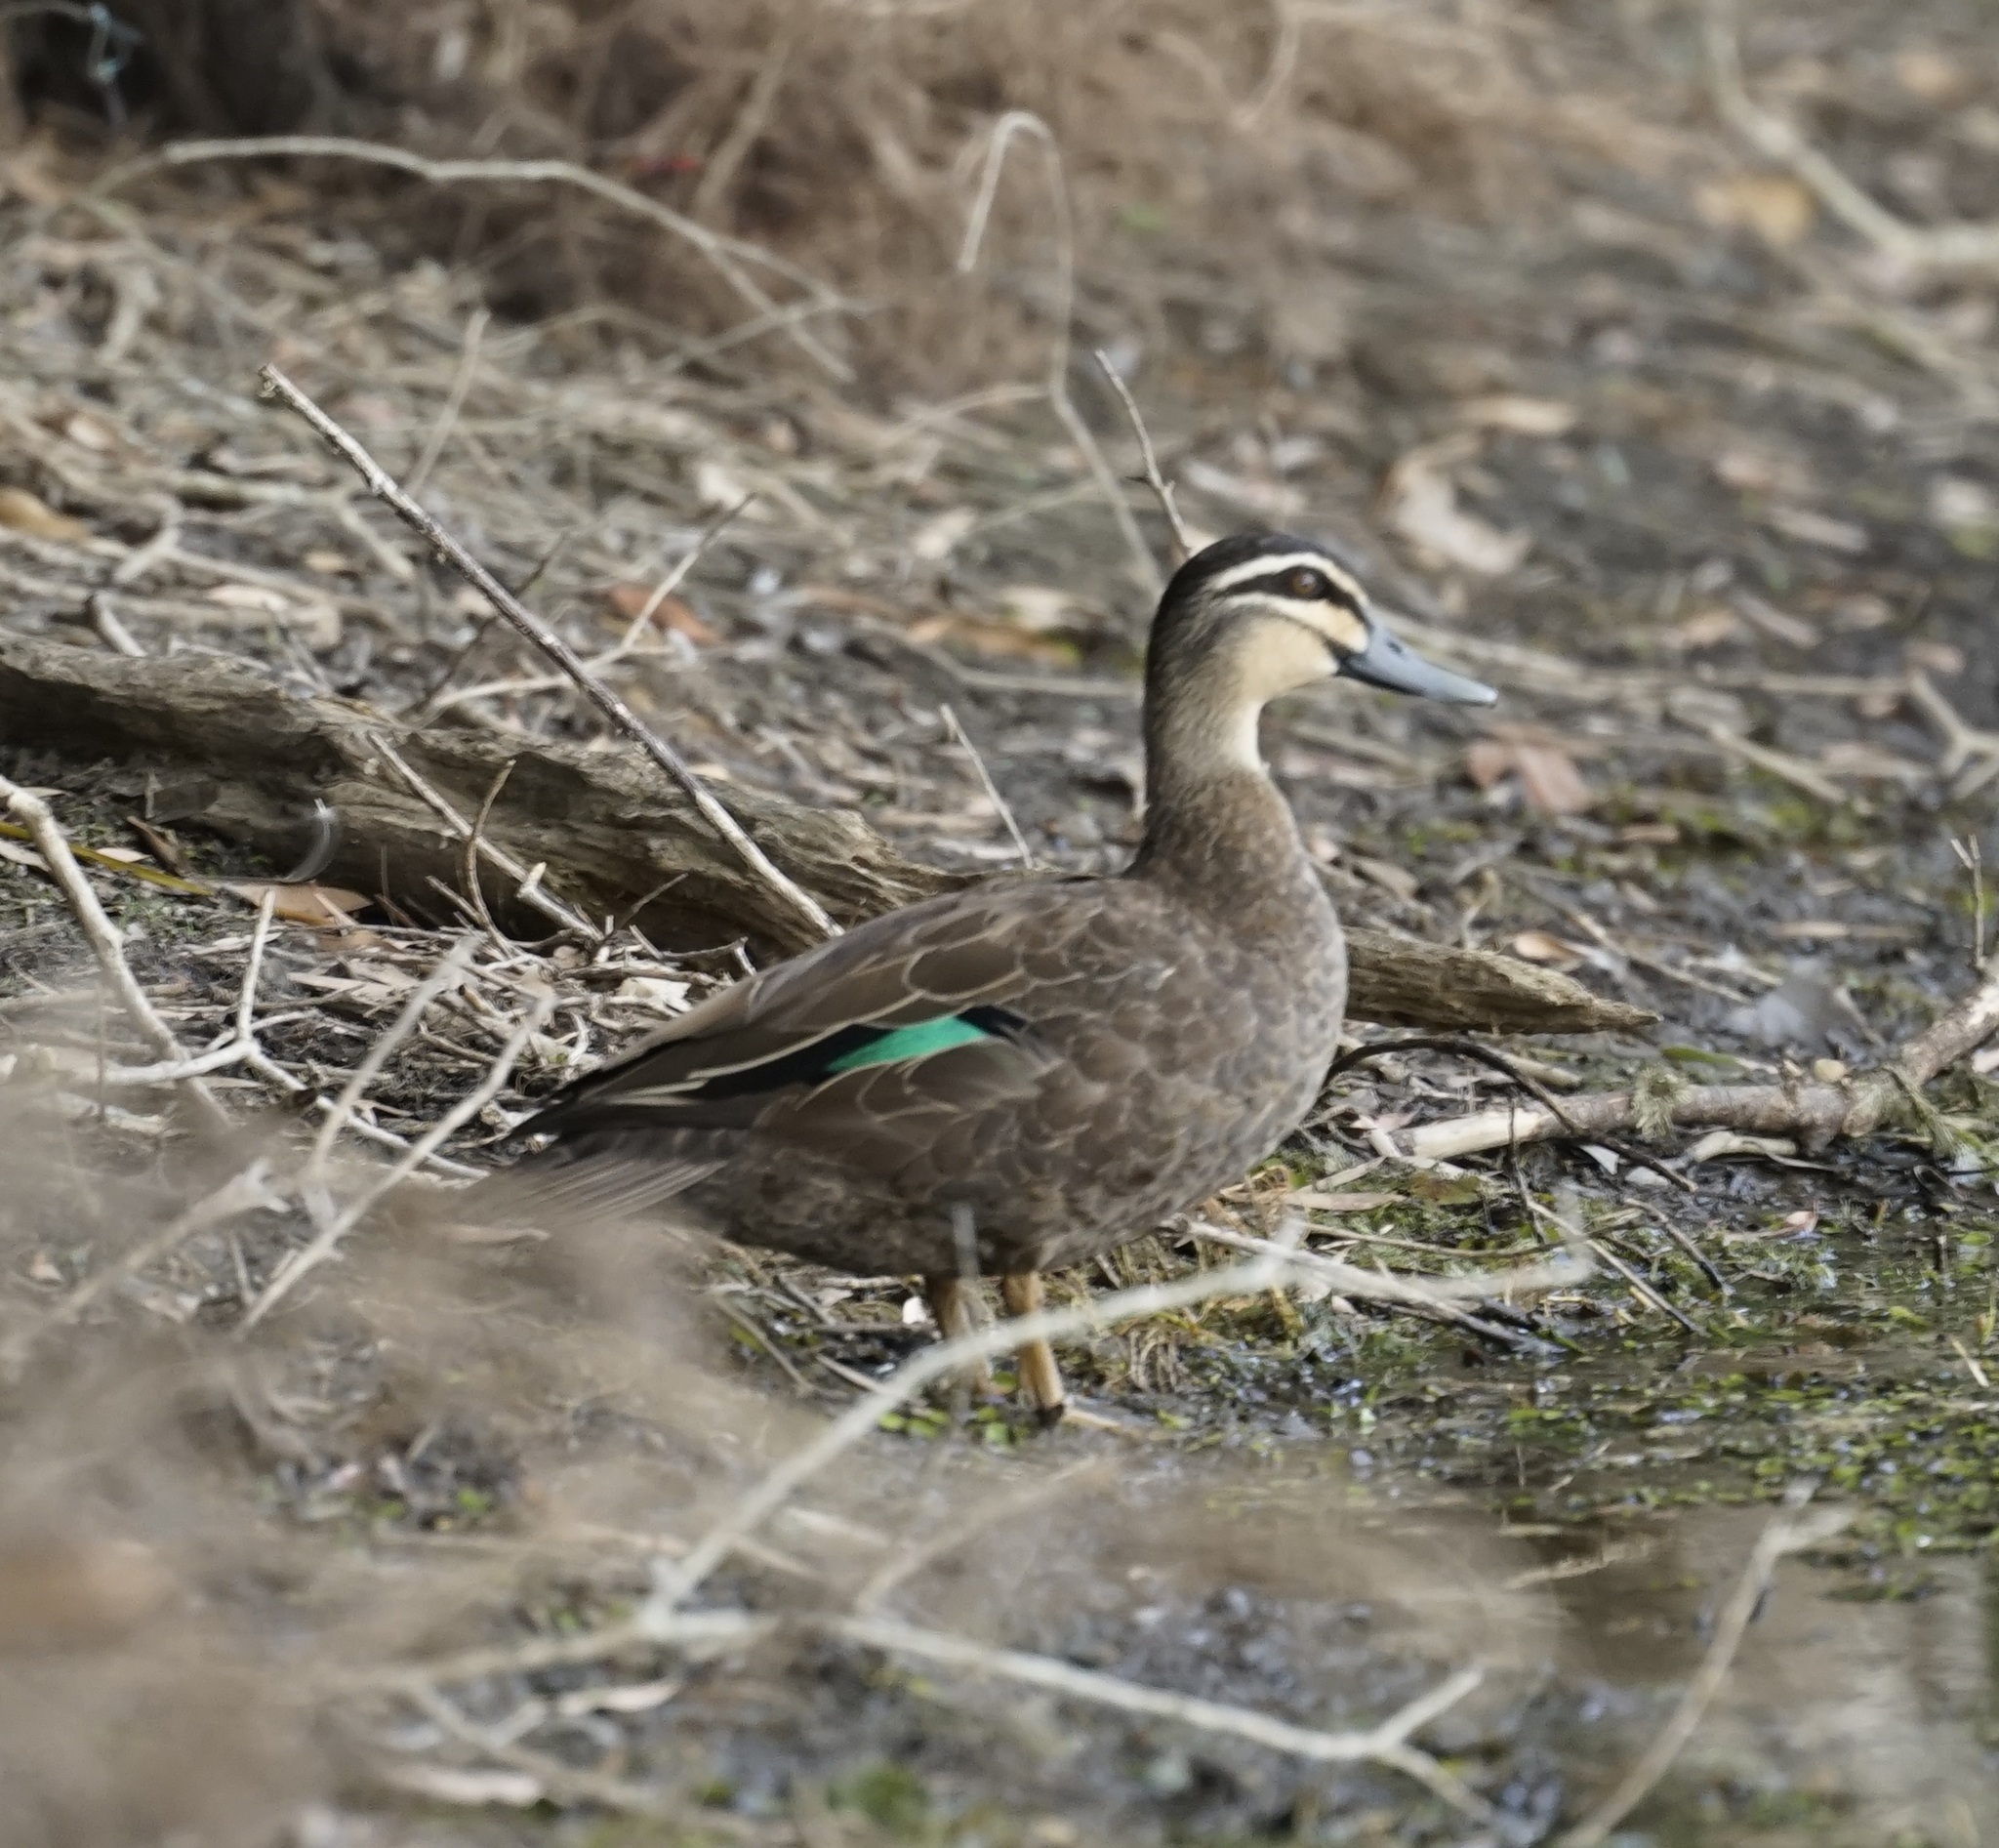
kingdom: Animalia
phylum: Chordata
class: Aves
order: Anseriformes
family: Anatidae
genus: Anas
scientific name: Anas superciliosa
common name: Pacific black duck
